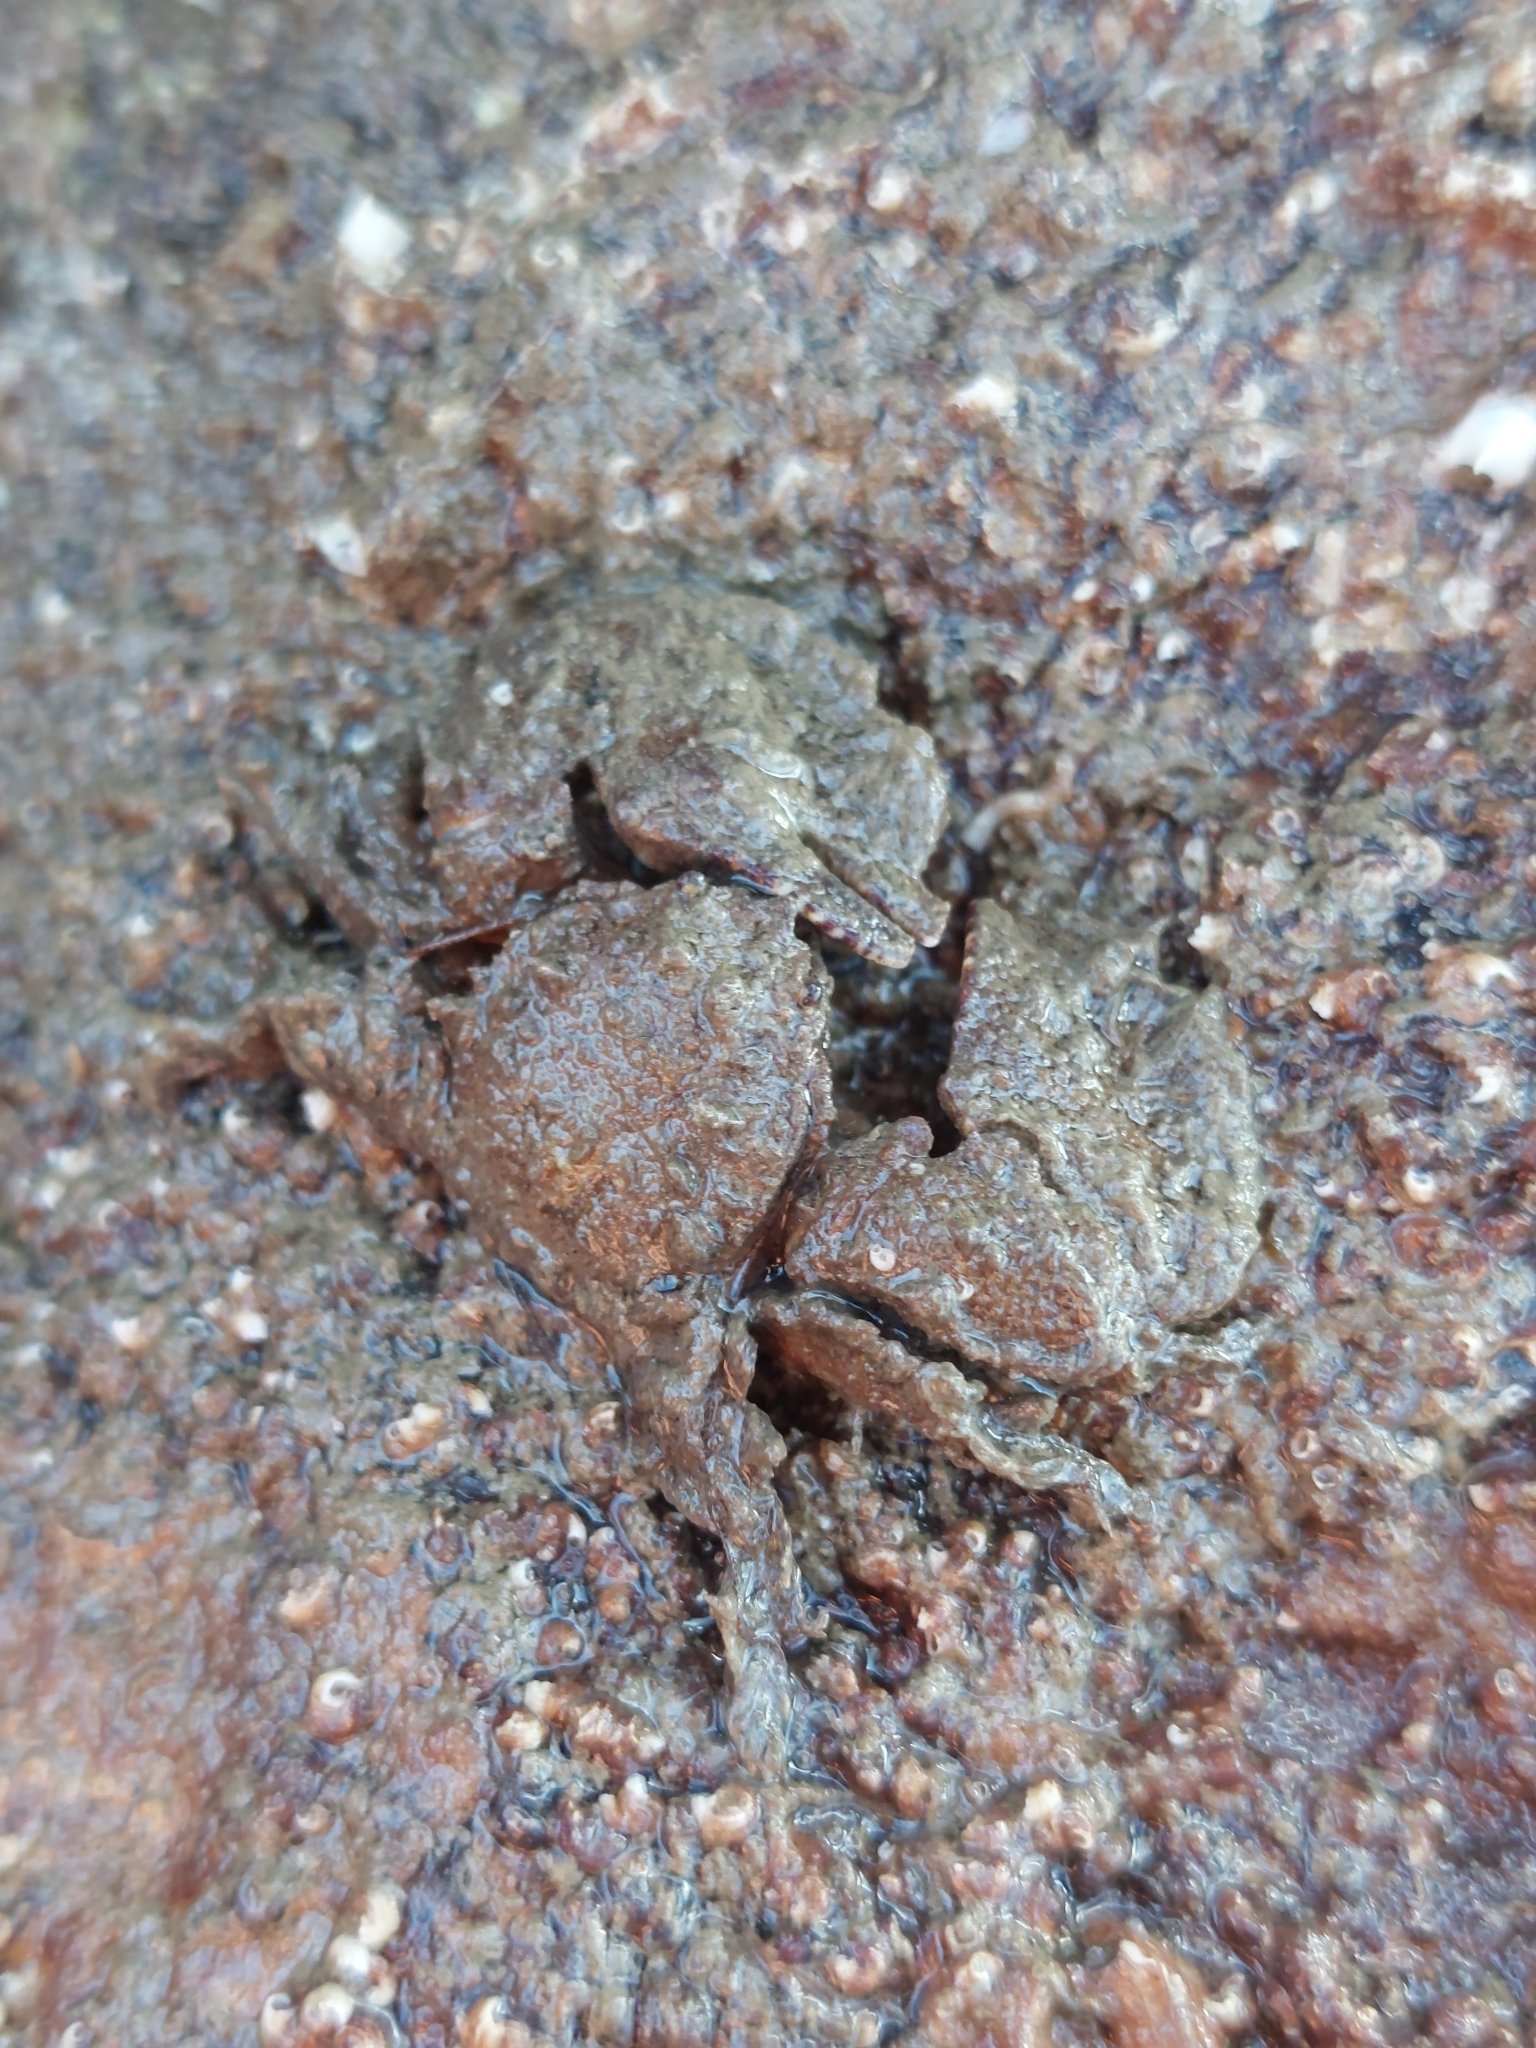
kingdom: Animalia
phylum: Arthropoda
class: Malacostraca
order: Decapoda
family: Porcellanidae
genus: Porcellana
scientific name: Porcellana platycheles
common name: Porcelain crab
